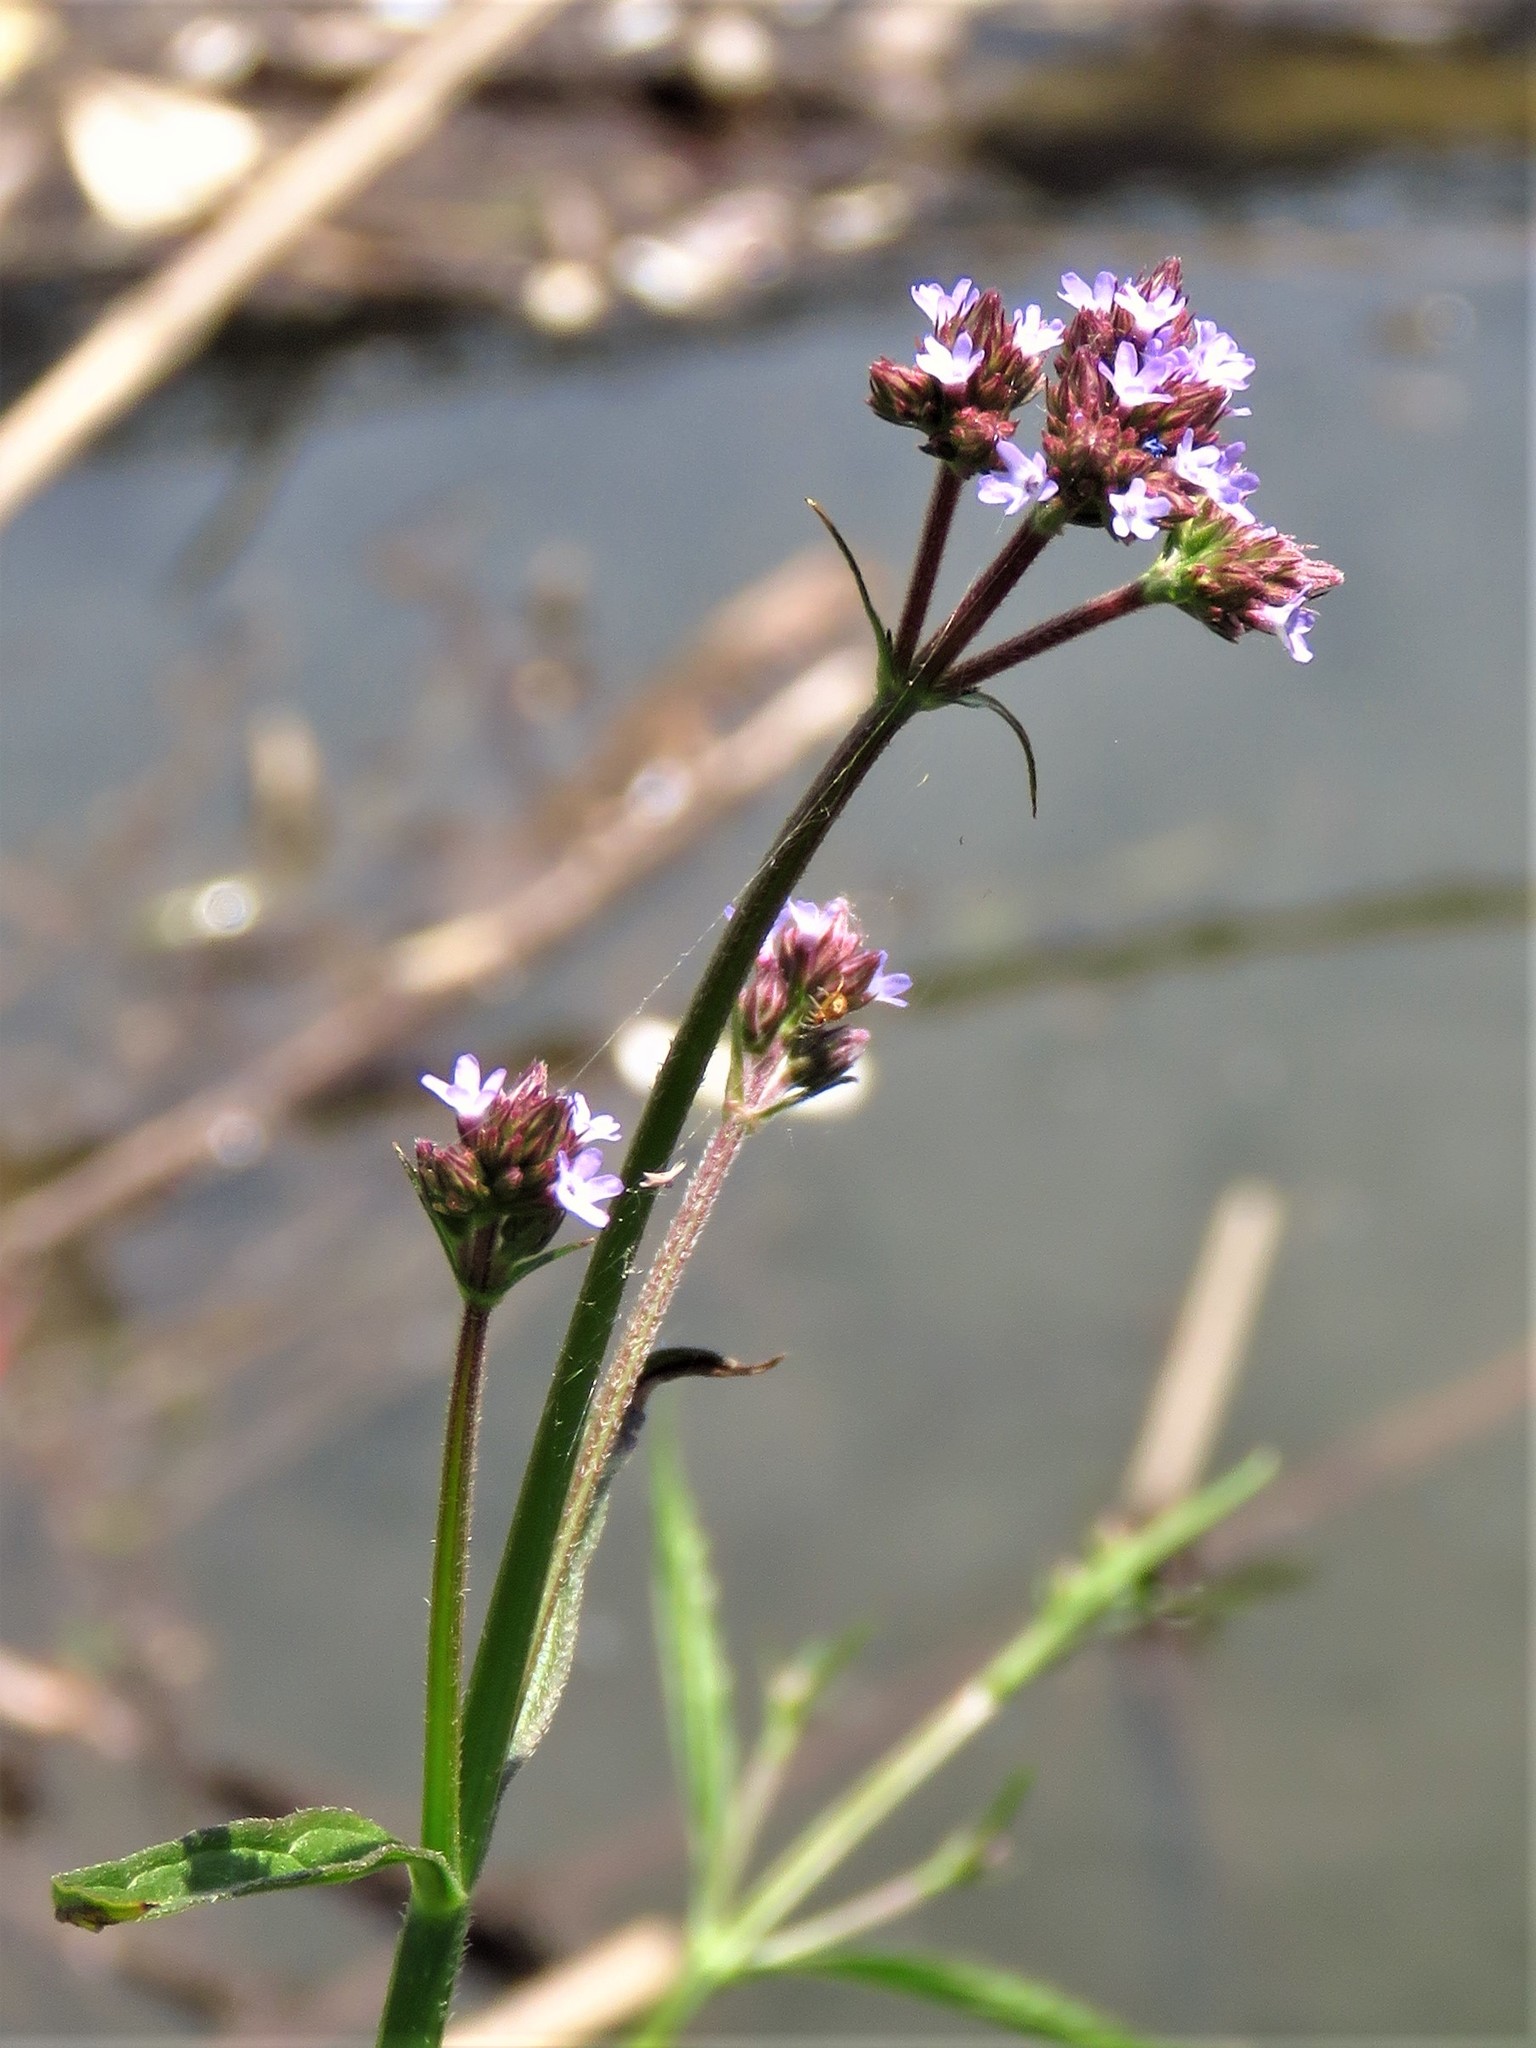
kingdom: Plantae
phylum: Tracheophyta
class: Magnoliopsida
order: Lamiales
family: Verbenaceae
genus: Verbena
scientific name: Verbena brasiliensis
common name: Brazilian vervain
